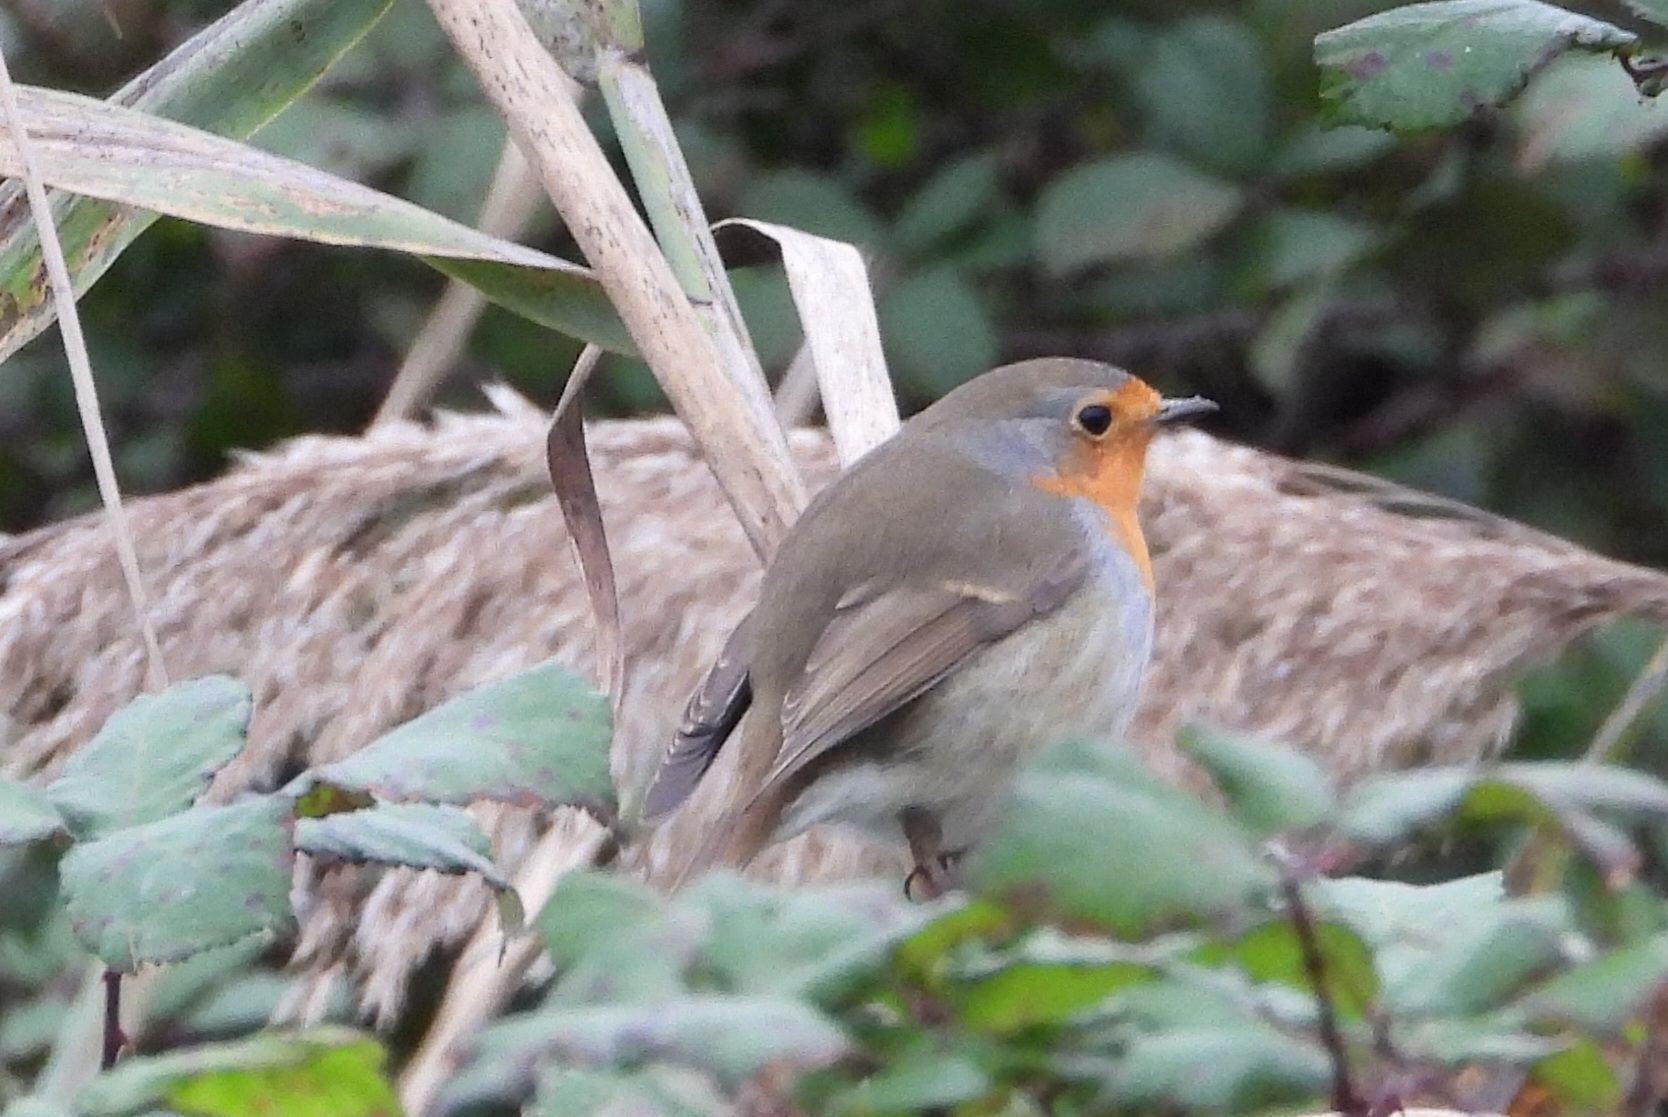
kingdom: Animalia
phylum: Chordata
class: Aves
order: Passeriformes
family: Muscicapidae
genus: Erithacus
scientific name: Erithacus rubecula
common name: European robin
